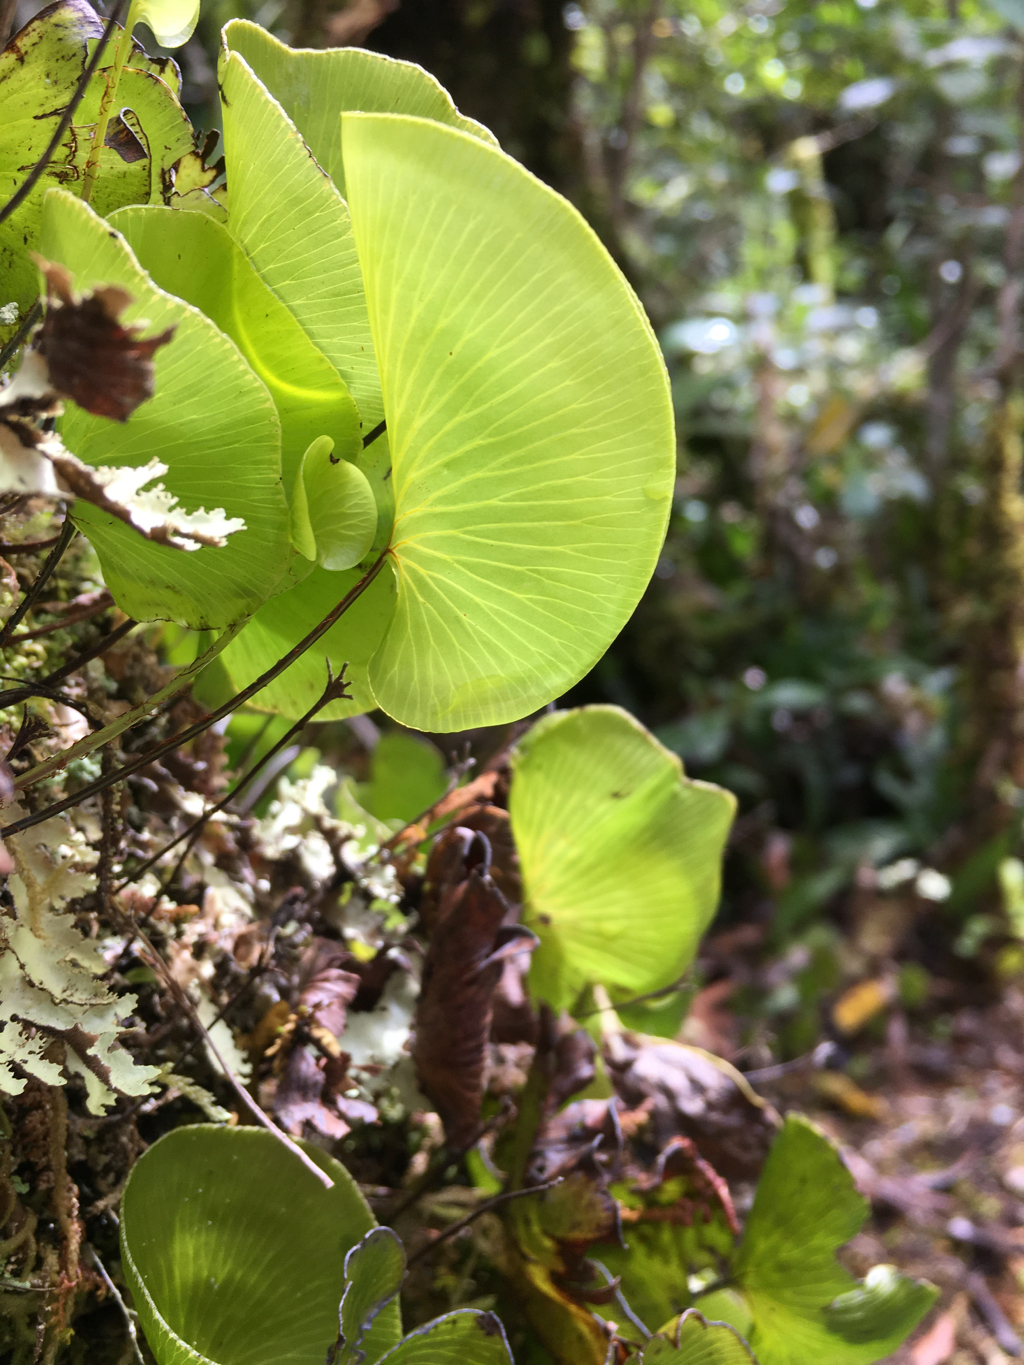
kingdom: Plantae
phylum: Tracheophyta
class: Polypodiopsida
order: Hymenophyllales
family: Hymenophyllaceae
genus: Hymenophyllum
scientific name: Hymenophyllum nephrophyllum
